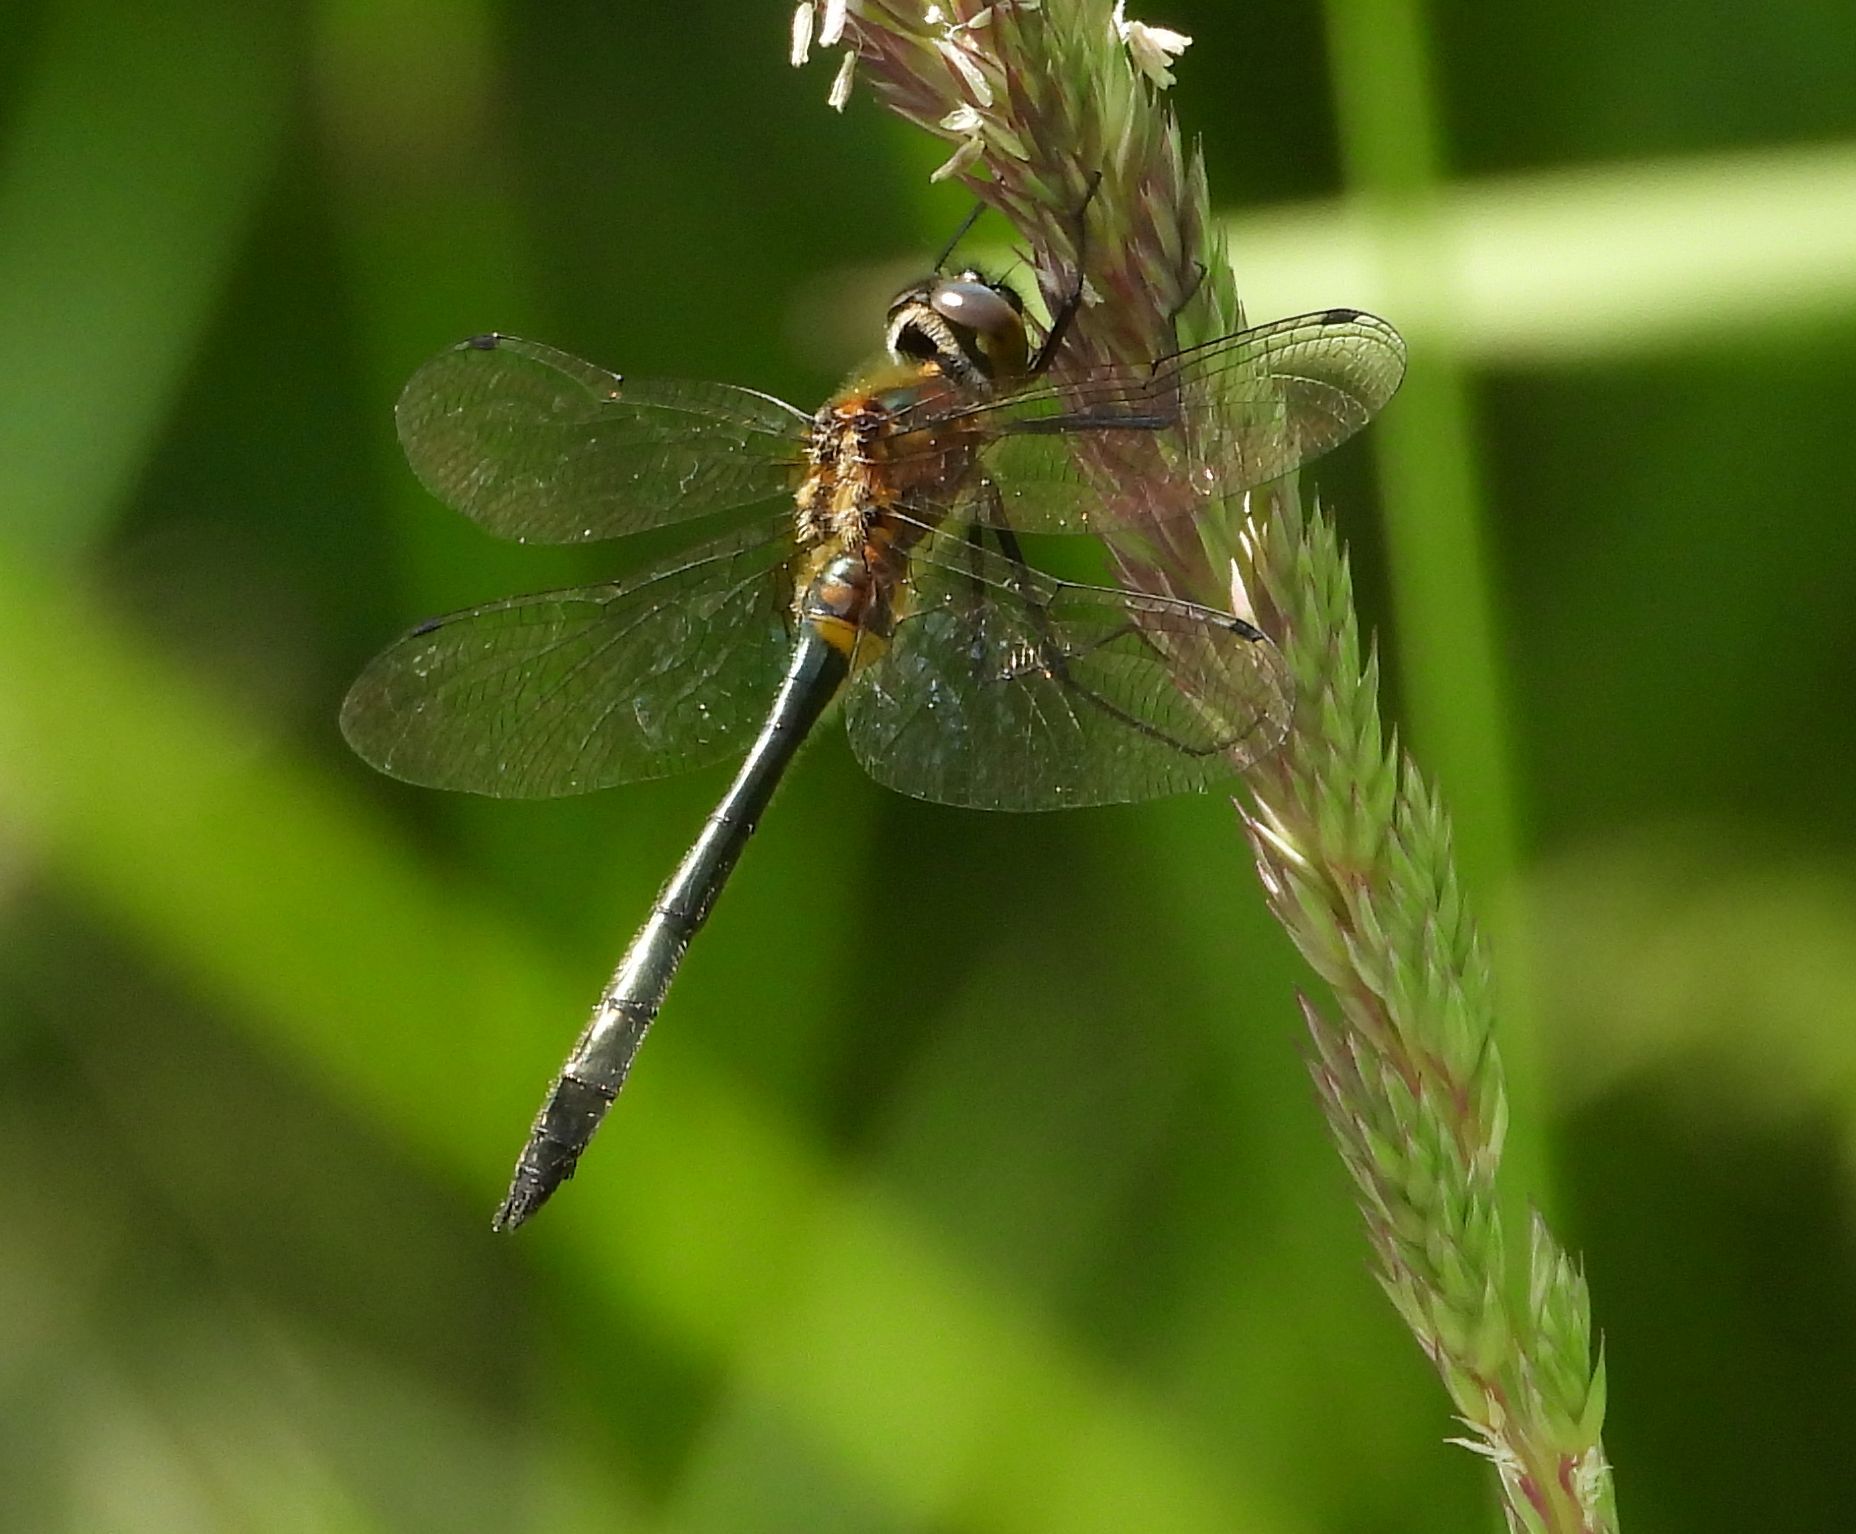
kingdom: Animalia
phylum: Arthropoda
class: Insecta
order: Odonata
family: Corduliidae
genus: Dorocordulia
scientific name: Dorocordulia libera
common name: Racket-tailed emerald
